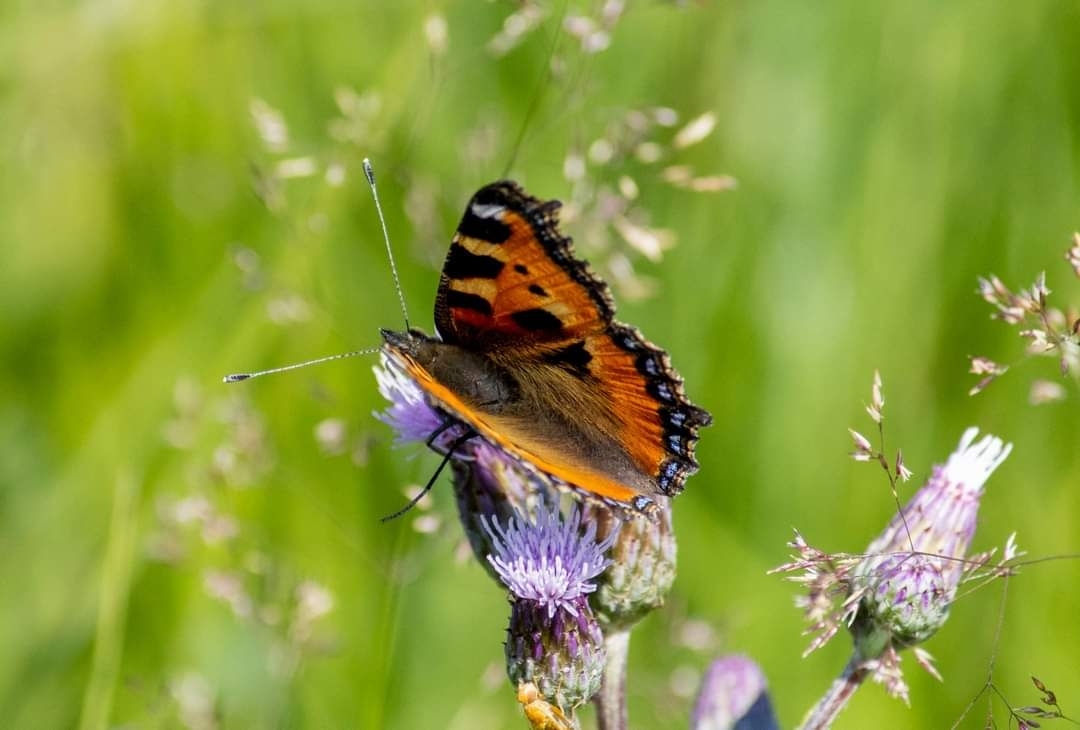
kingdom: Animalia
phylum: Arthropoda
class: Insecta
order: Lepidoptera
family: Nymphalidae
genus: Aglais
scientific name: Aglais urticae
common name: Small tortoiseshell
